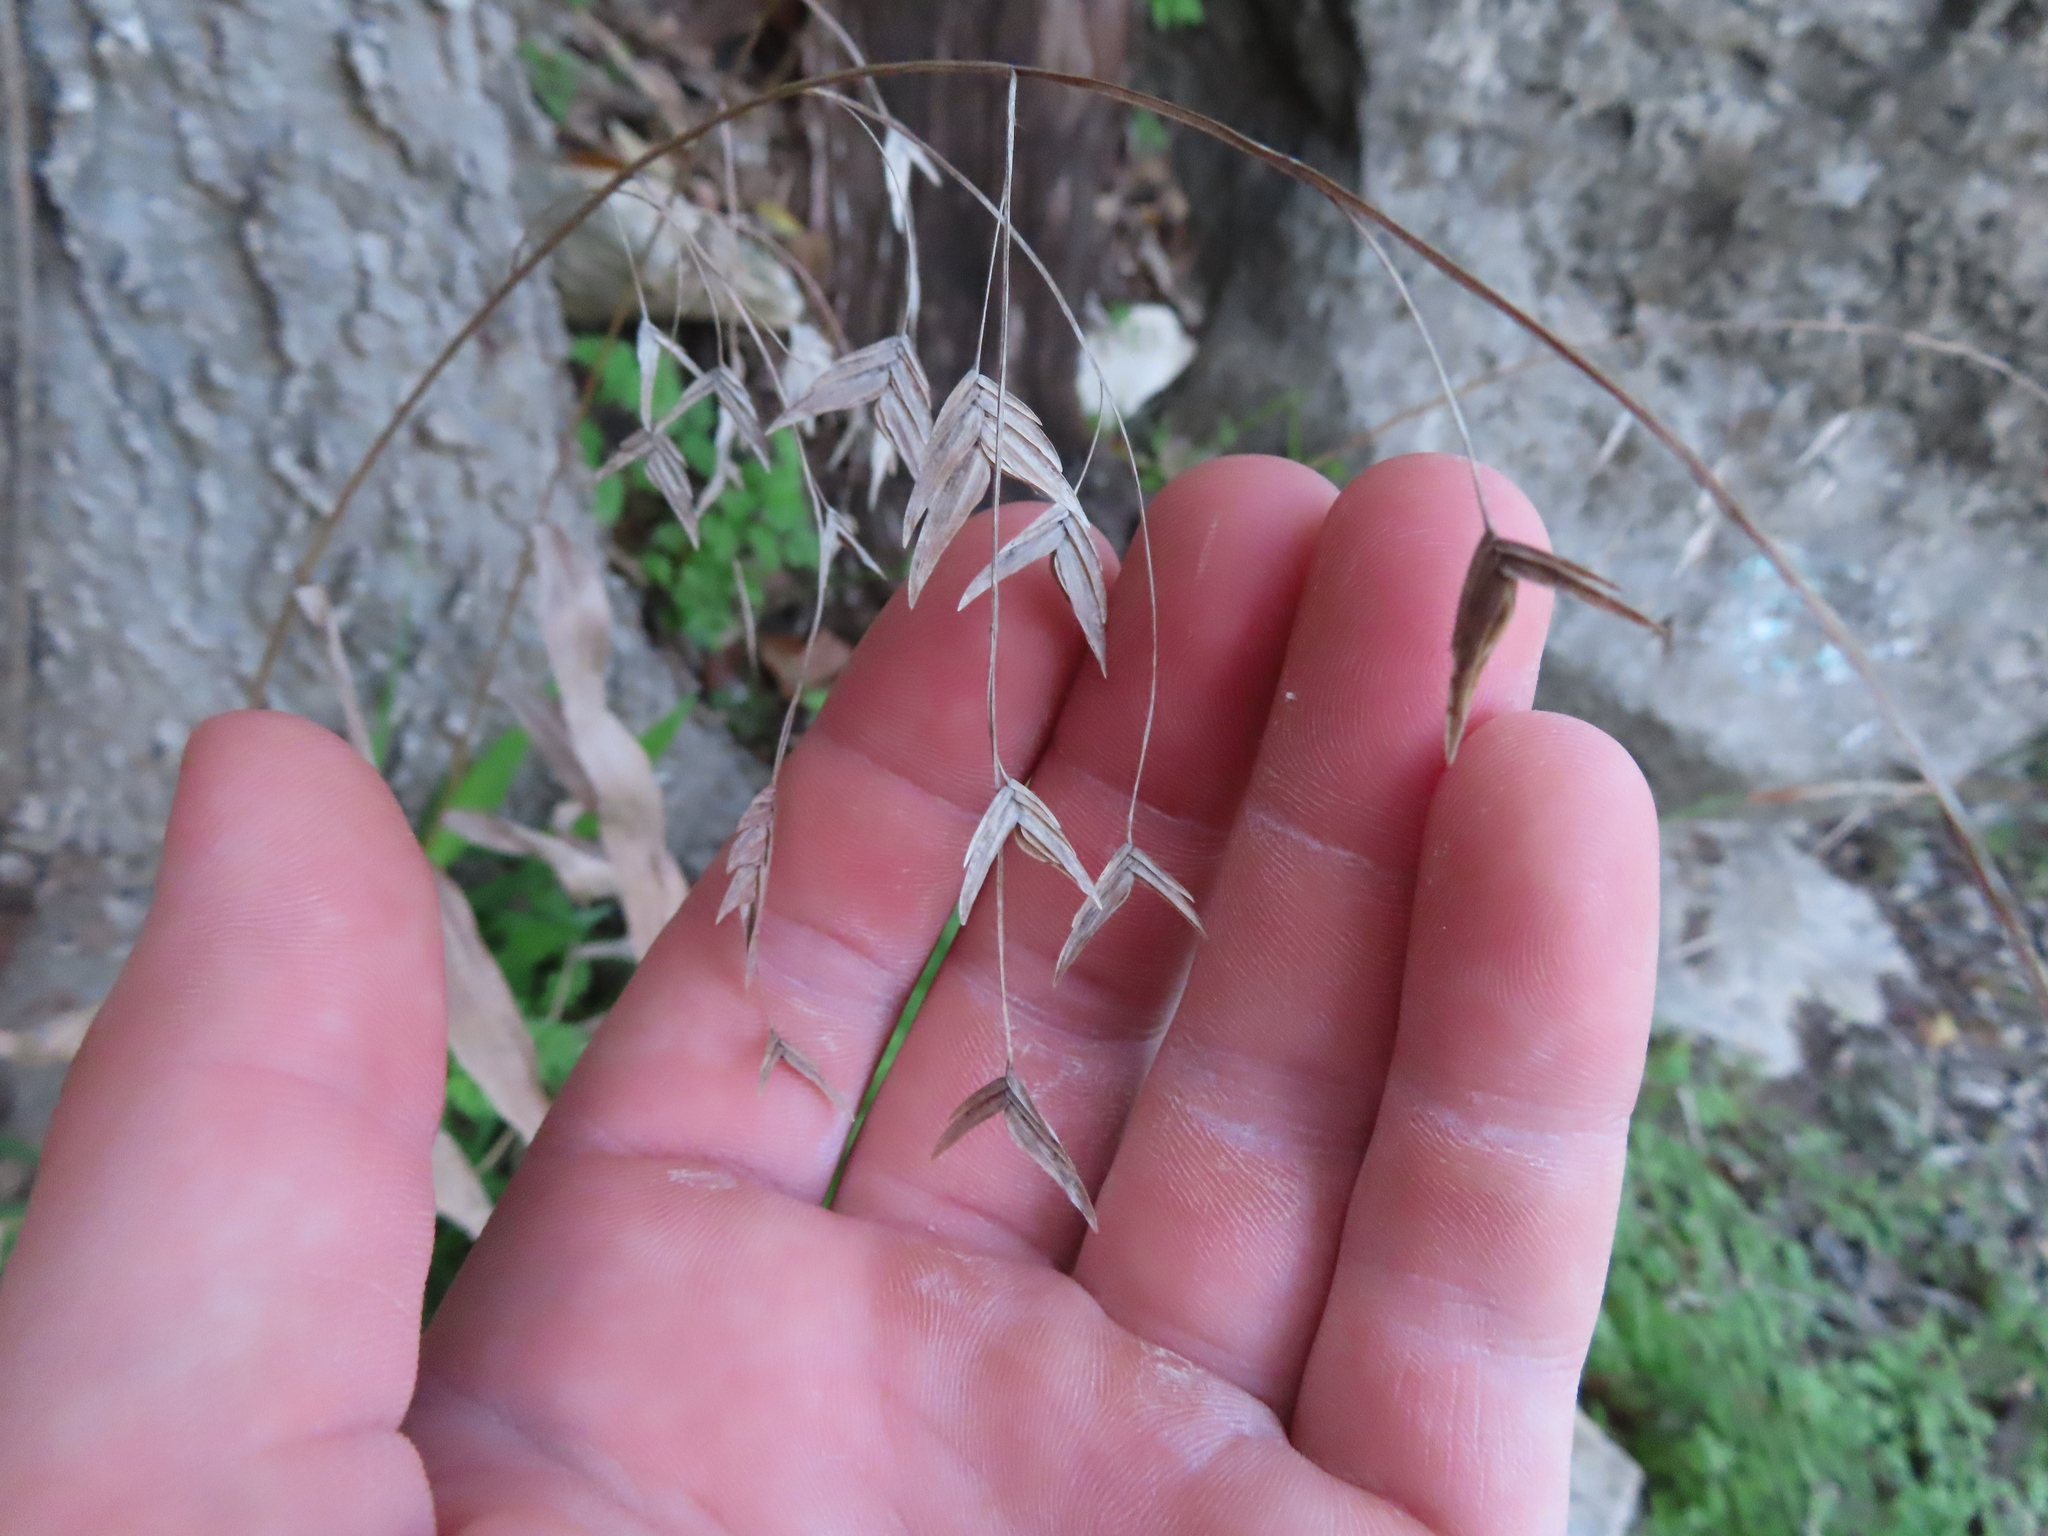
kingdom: Plantae
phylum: Tracheophyta
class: Liliopsida
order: Poales
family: Poaceae
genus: Chasmanthium
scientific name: Chasmanthium latifolium
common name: Broad-leaved chasmanthium
